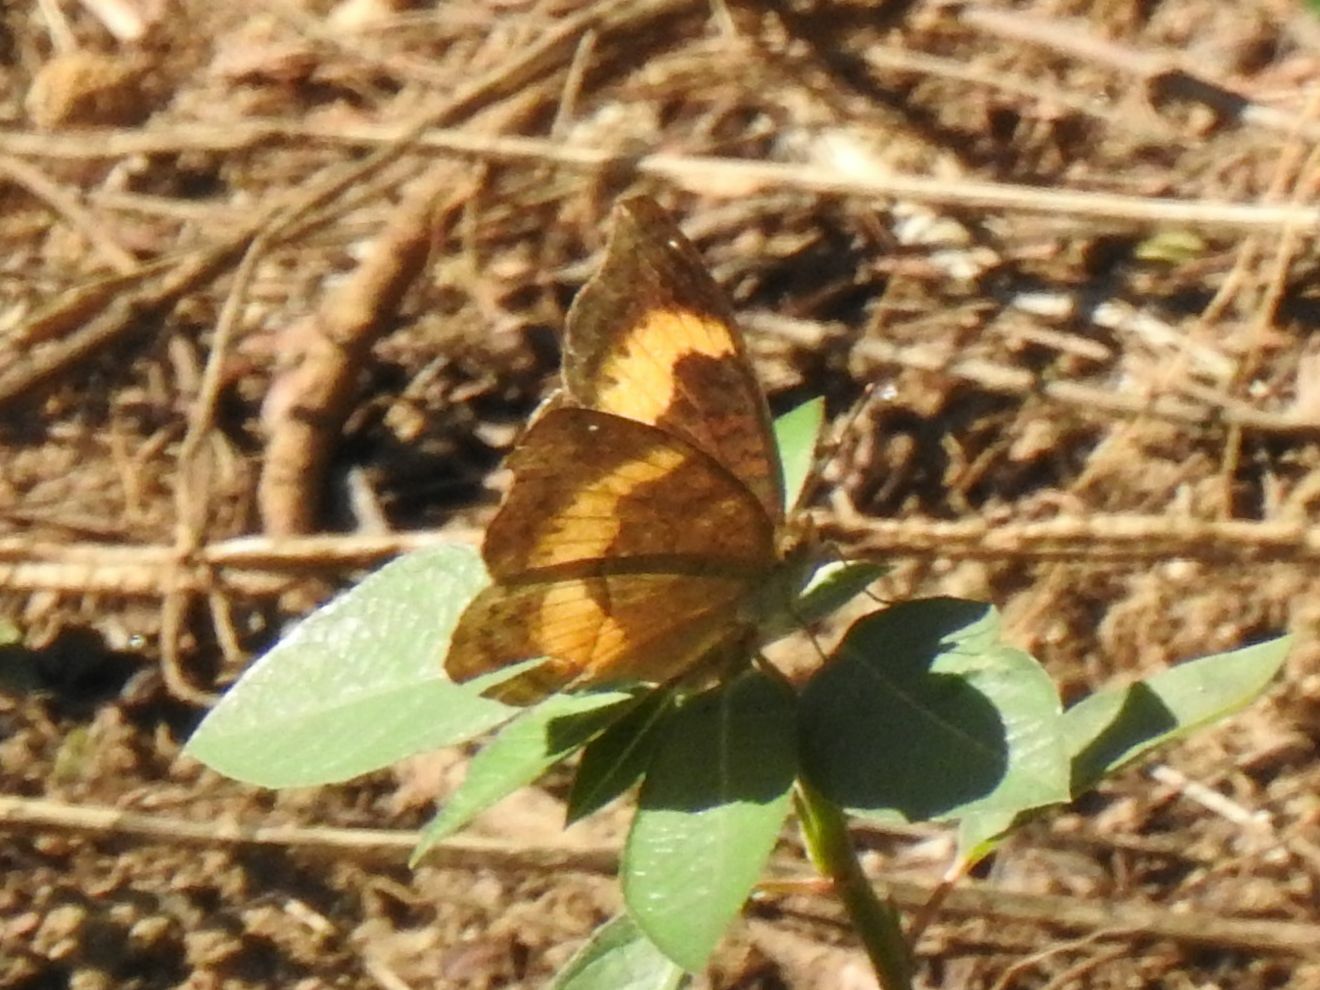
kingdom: Animalia
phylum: Arthropoda
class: Insecta
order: Lepidoptera
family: Nymphalidae
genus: Junonia
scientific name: Junonia terea
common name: Soldier pansy
